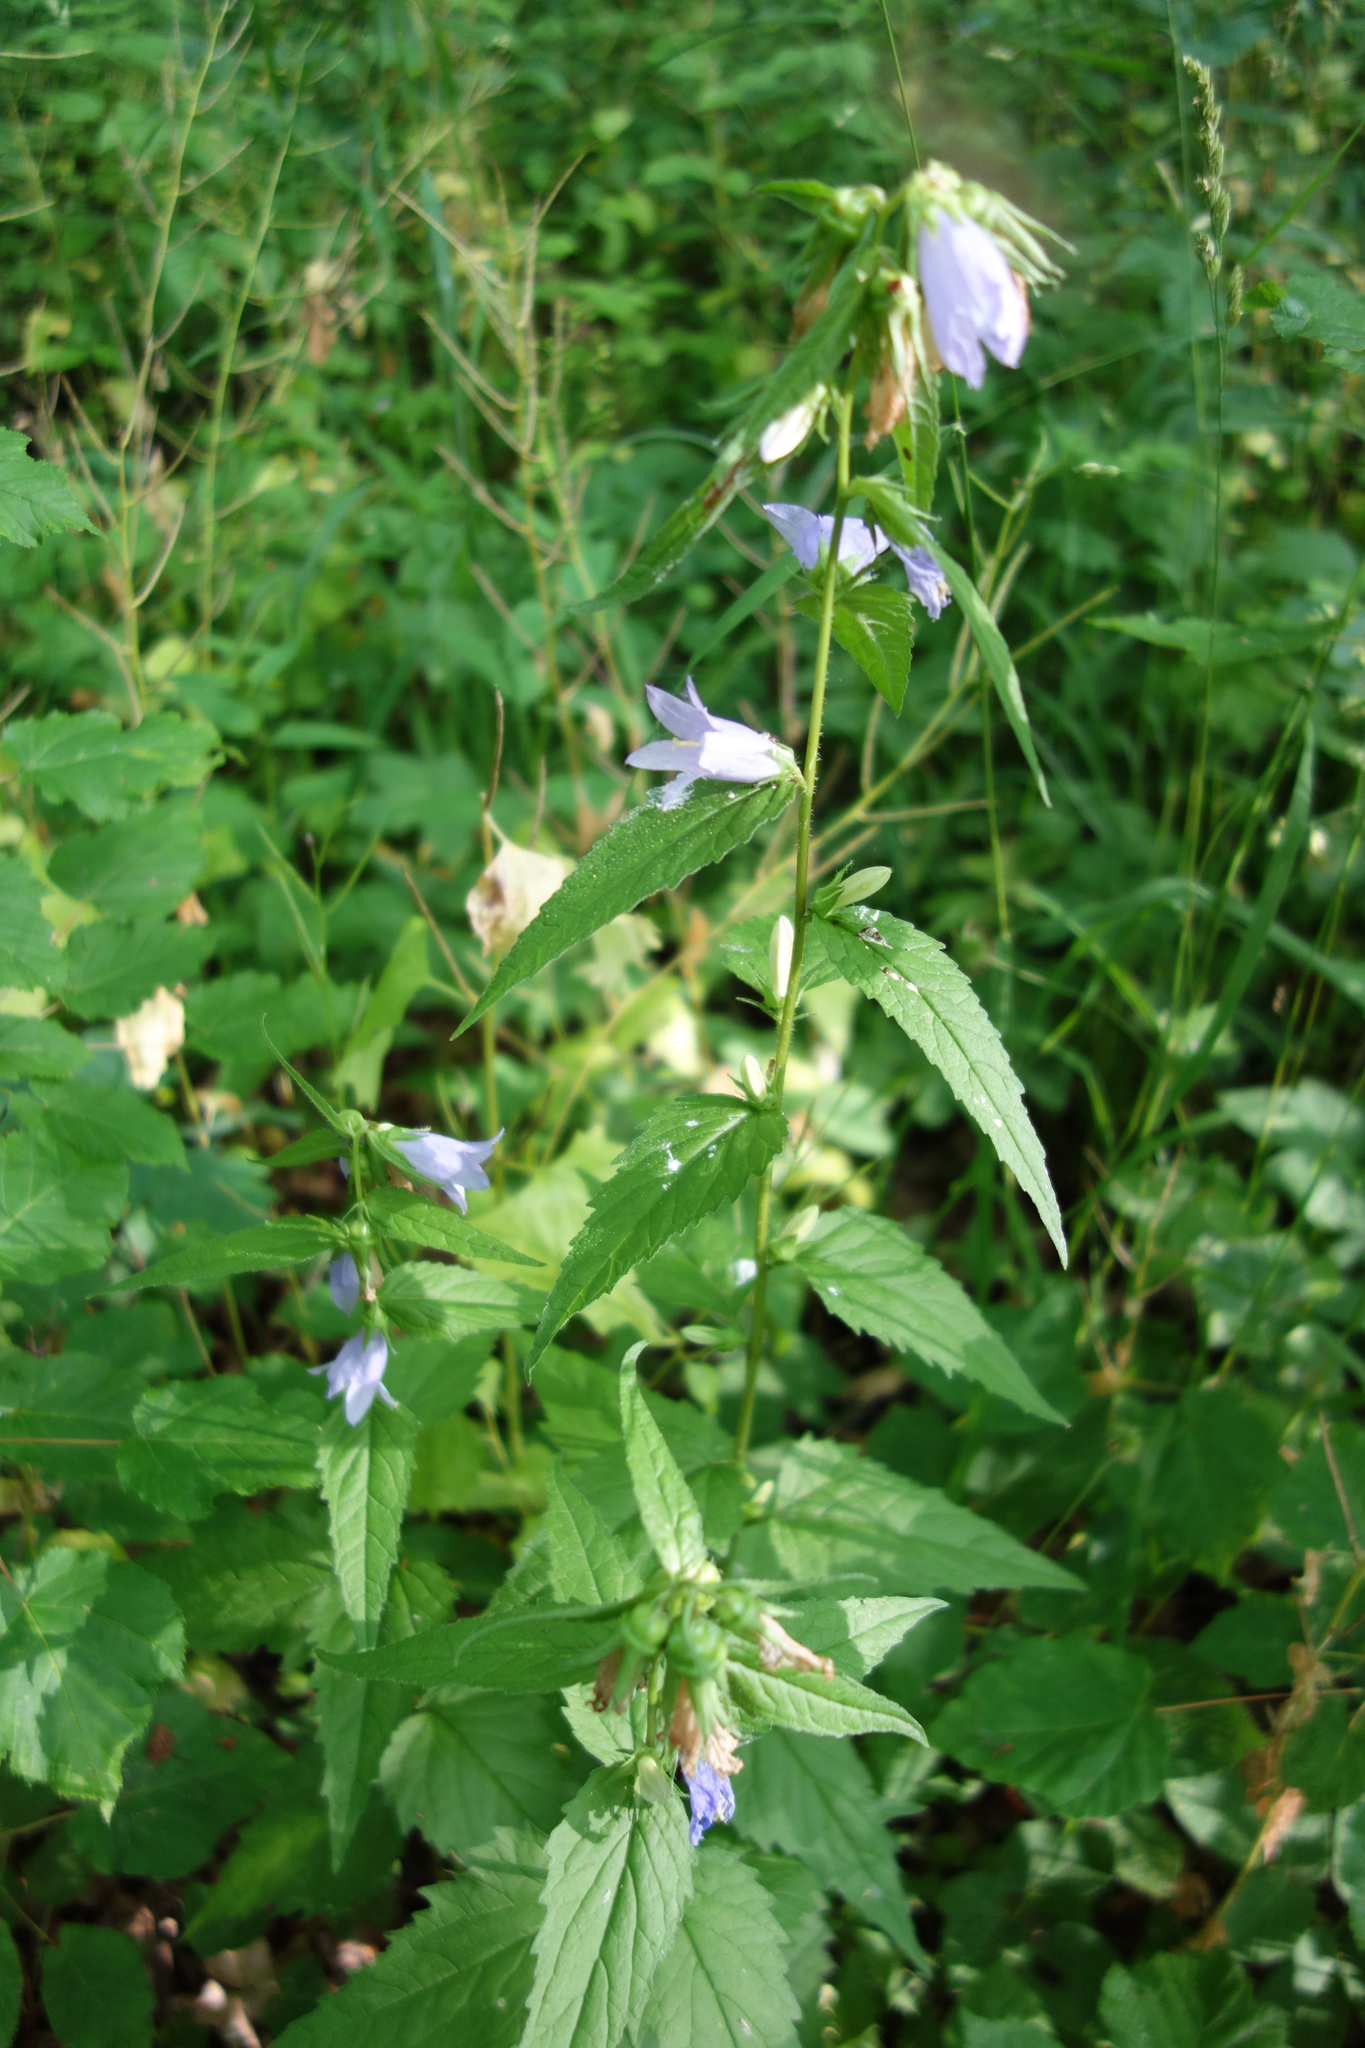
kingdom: Plantae
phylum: Tracheophyta
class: Magnoliopsida
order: Asterales
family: Campanulaceae
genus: Campanula
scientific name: Campanula trachelium
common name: Nettle-leaved bellflower
